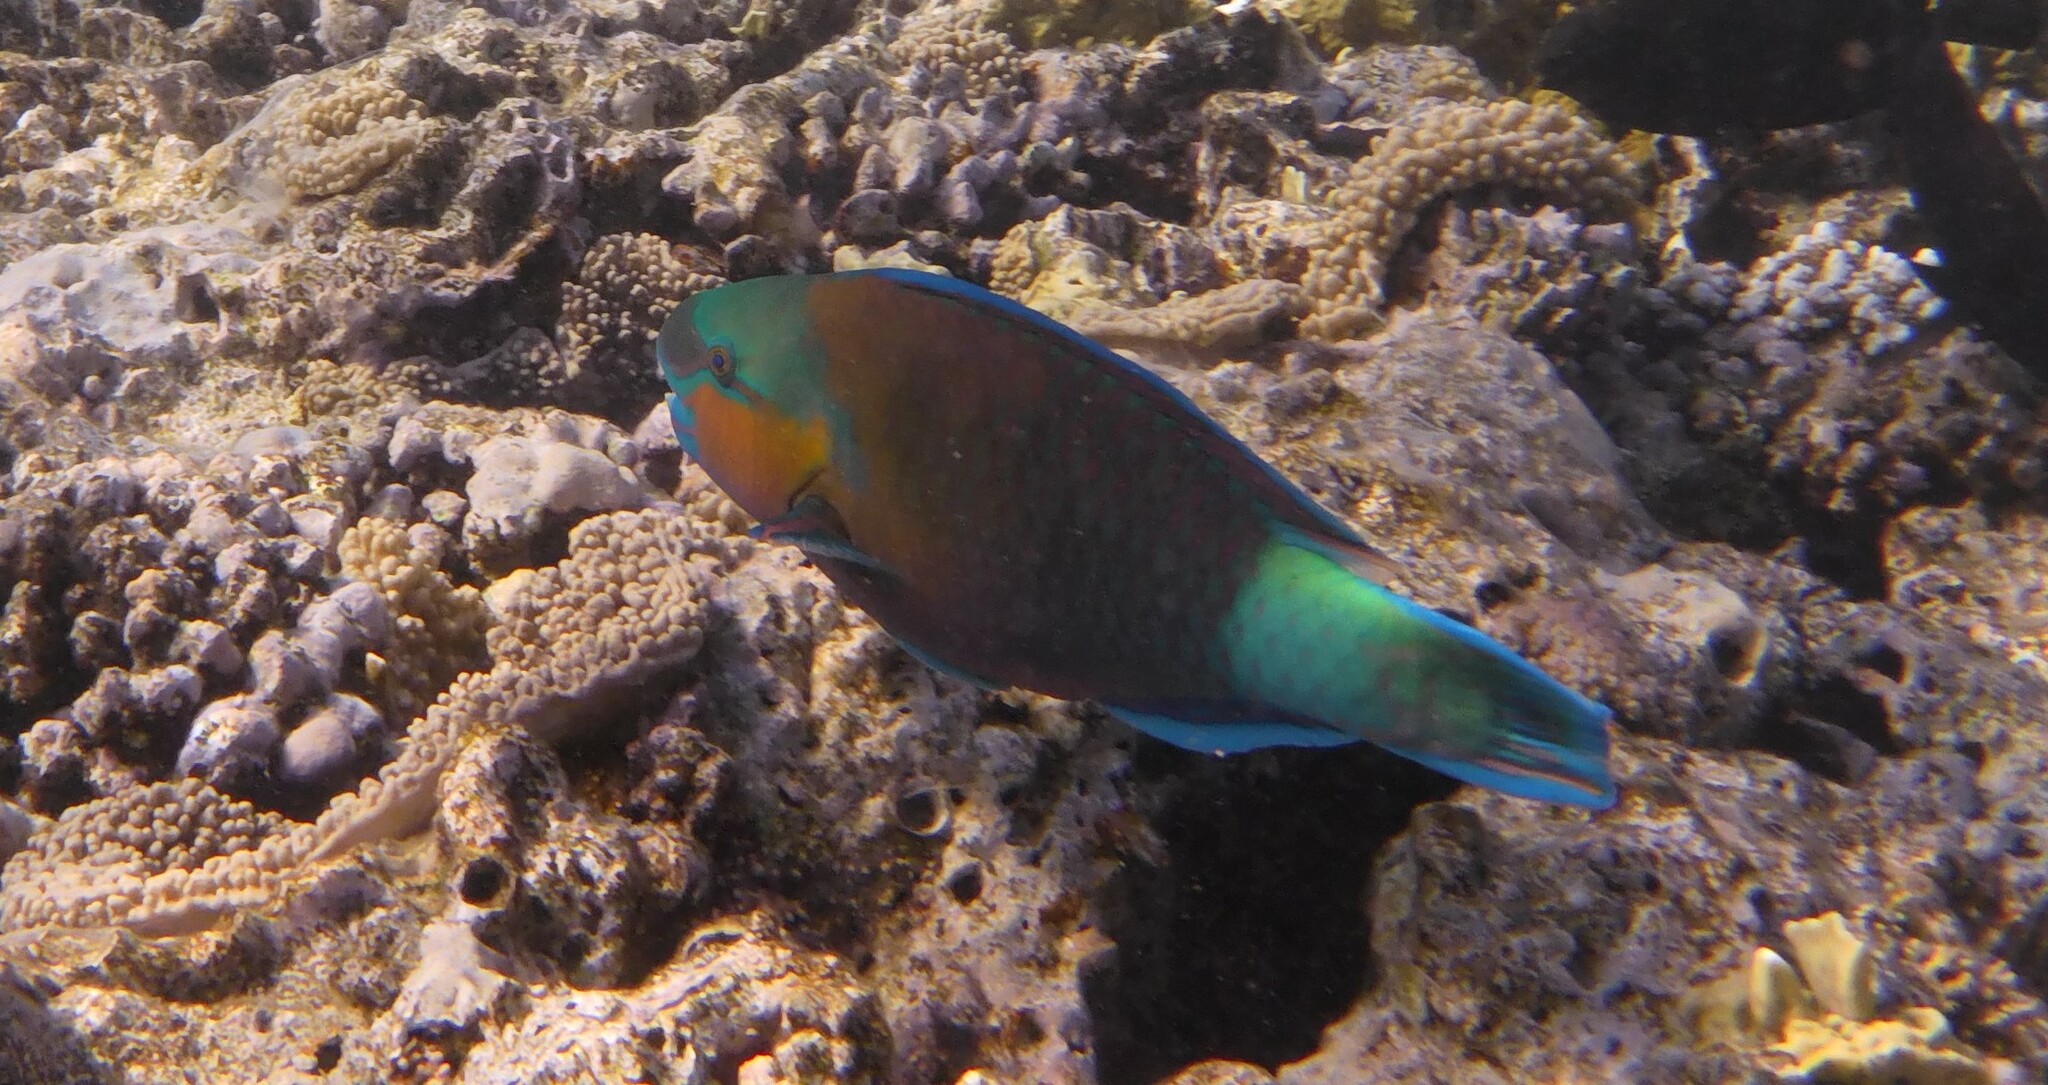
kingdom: Animalia
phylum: Chordata
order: Perciformes
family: Scaridae
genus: Chlorurus
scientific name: Chlorurus sordidus
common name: Bullethead parrotfish
